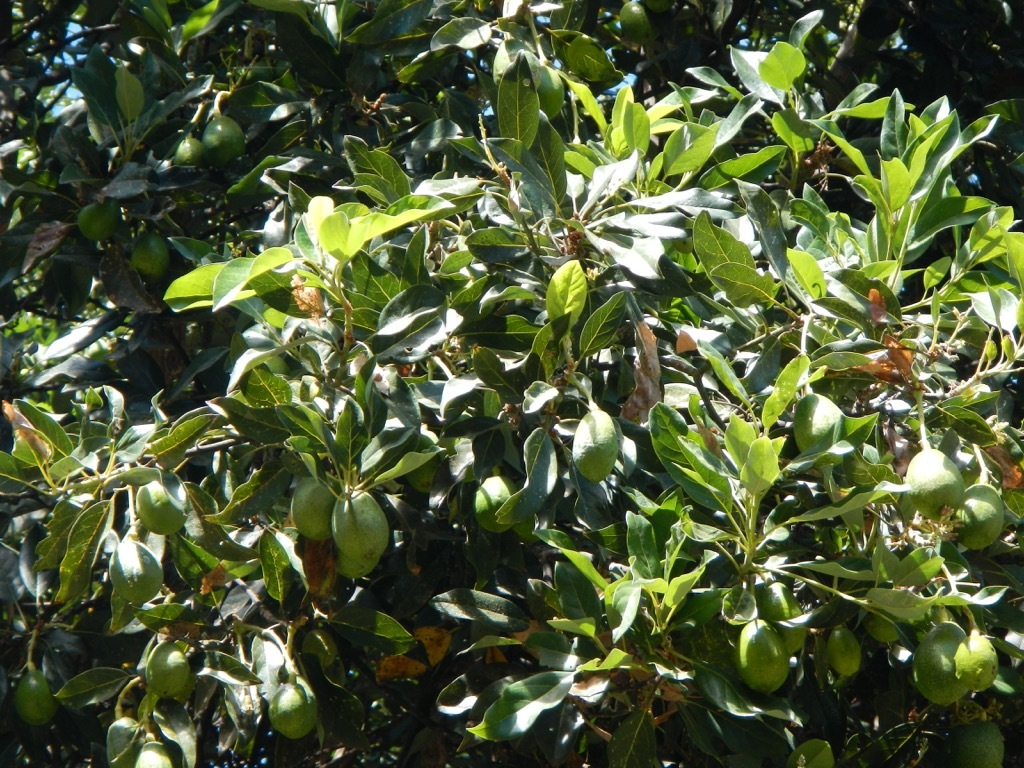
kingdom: Plantae
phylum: Tracheophyta
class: Magnoliopsida
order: Laurales
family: Lauraceae
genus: Persea
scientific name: Persea americana
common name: Avocado
